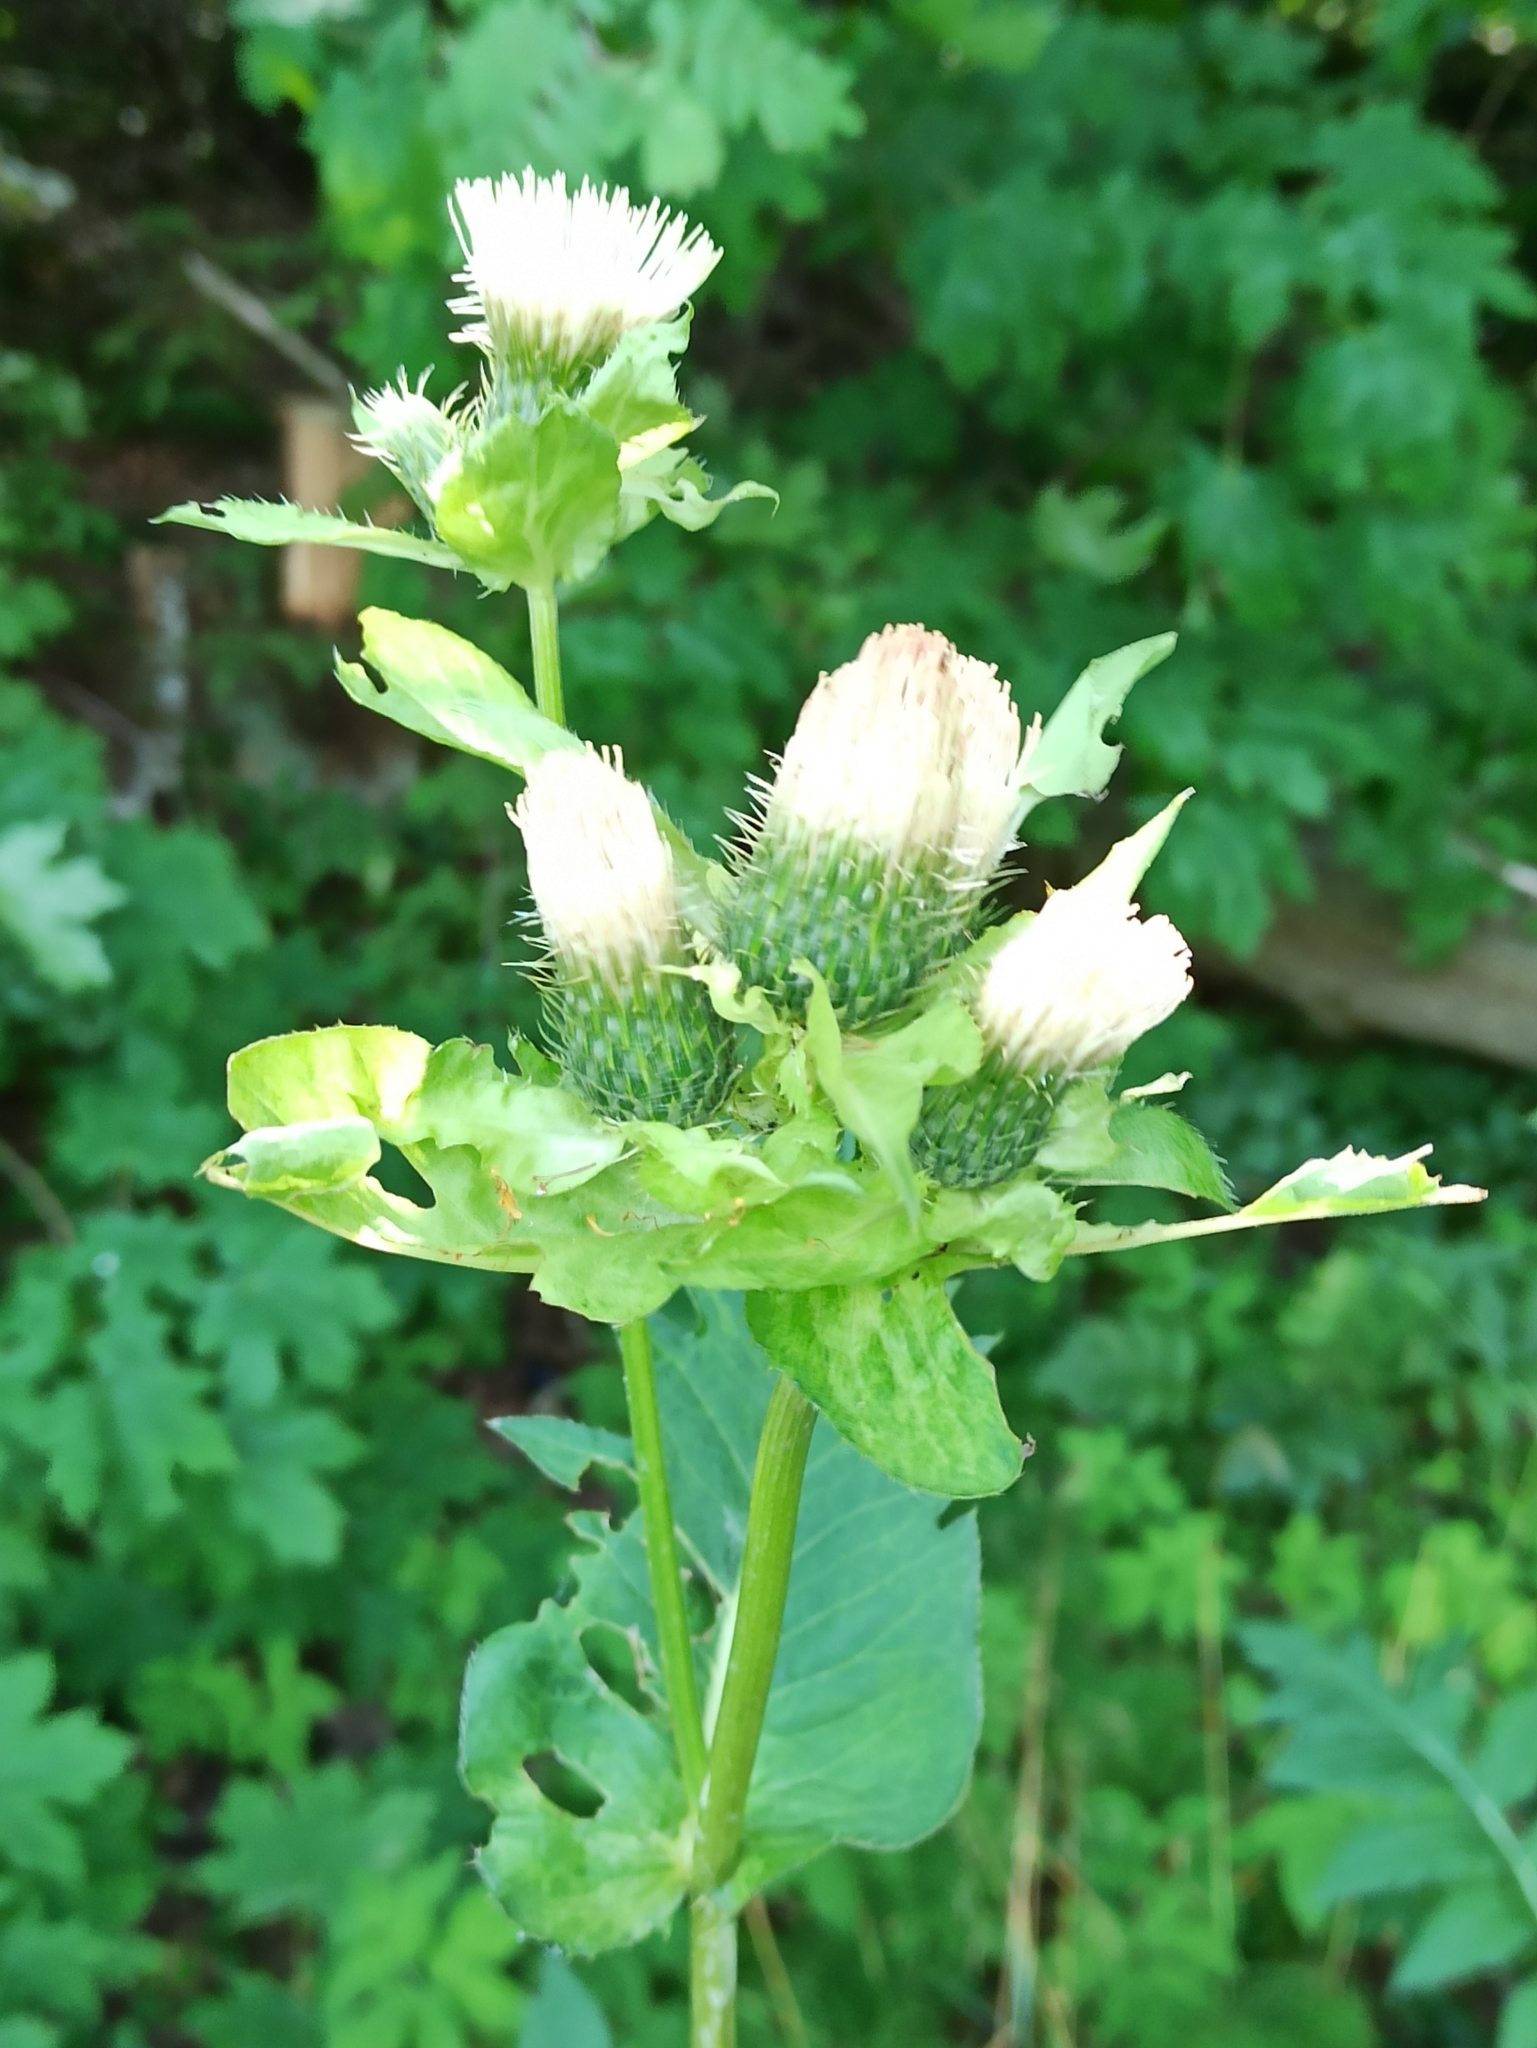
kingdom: Plantae
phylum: Tracheophyta
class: Magnoliopsida
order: Asterales
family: Asteraceae
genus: Cirsium
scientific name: Cirsium oleraceum
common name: Cabbage thistle
